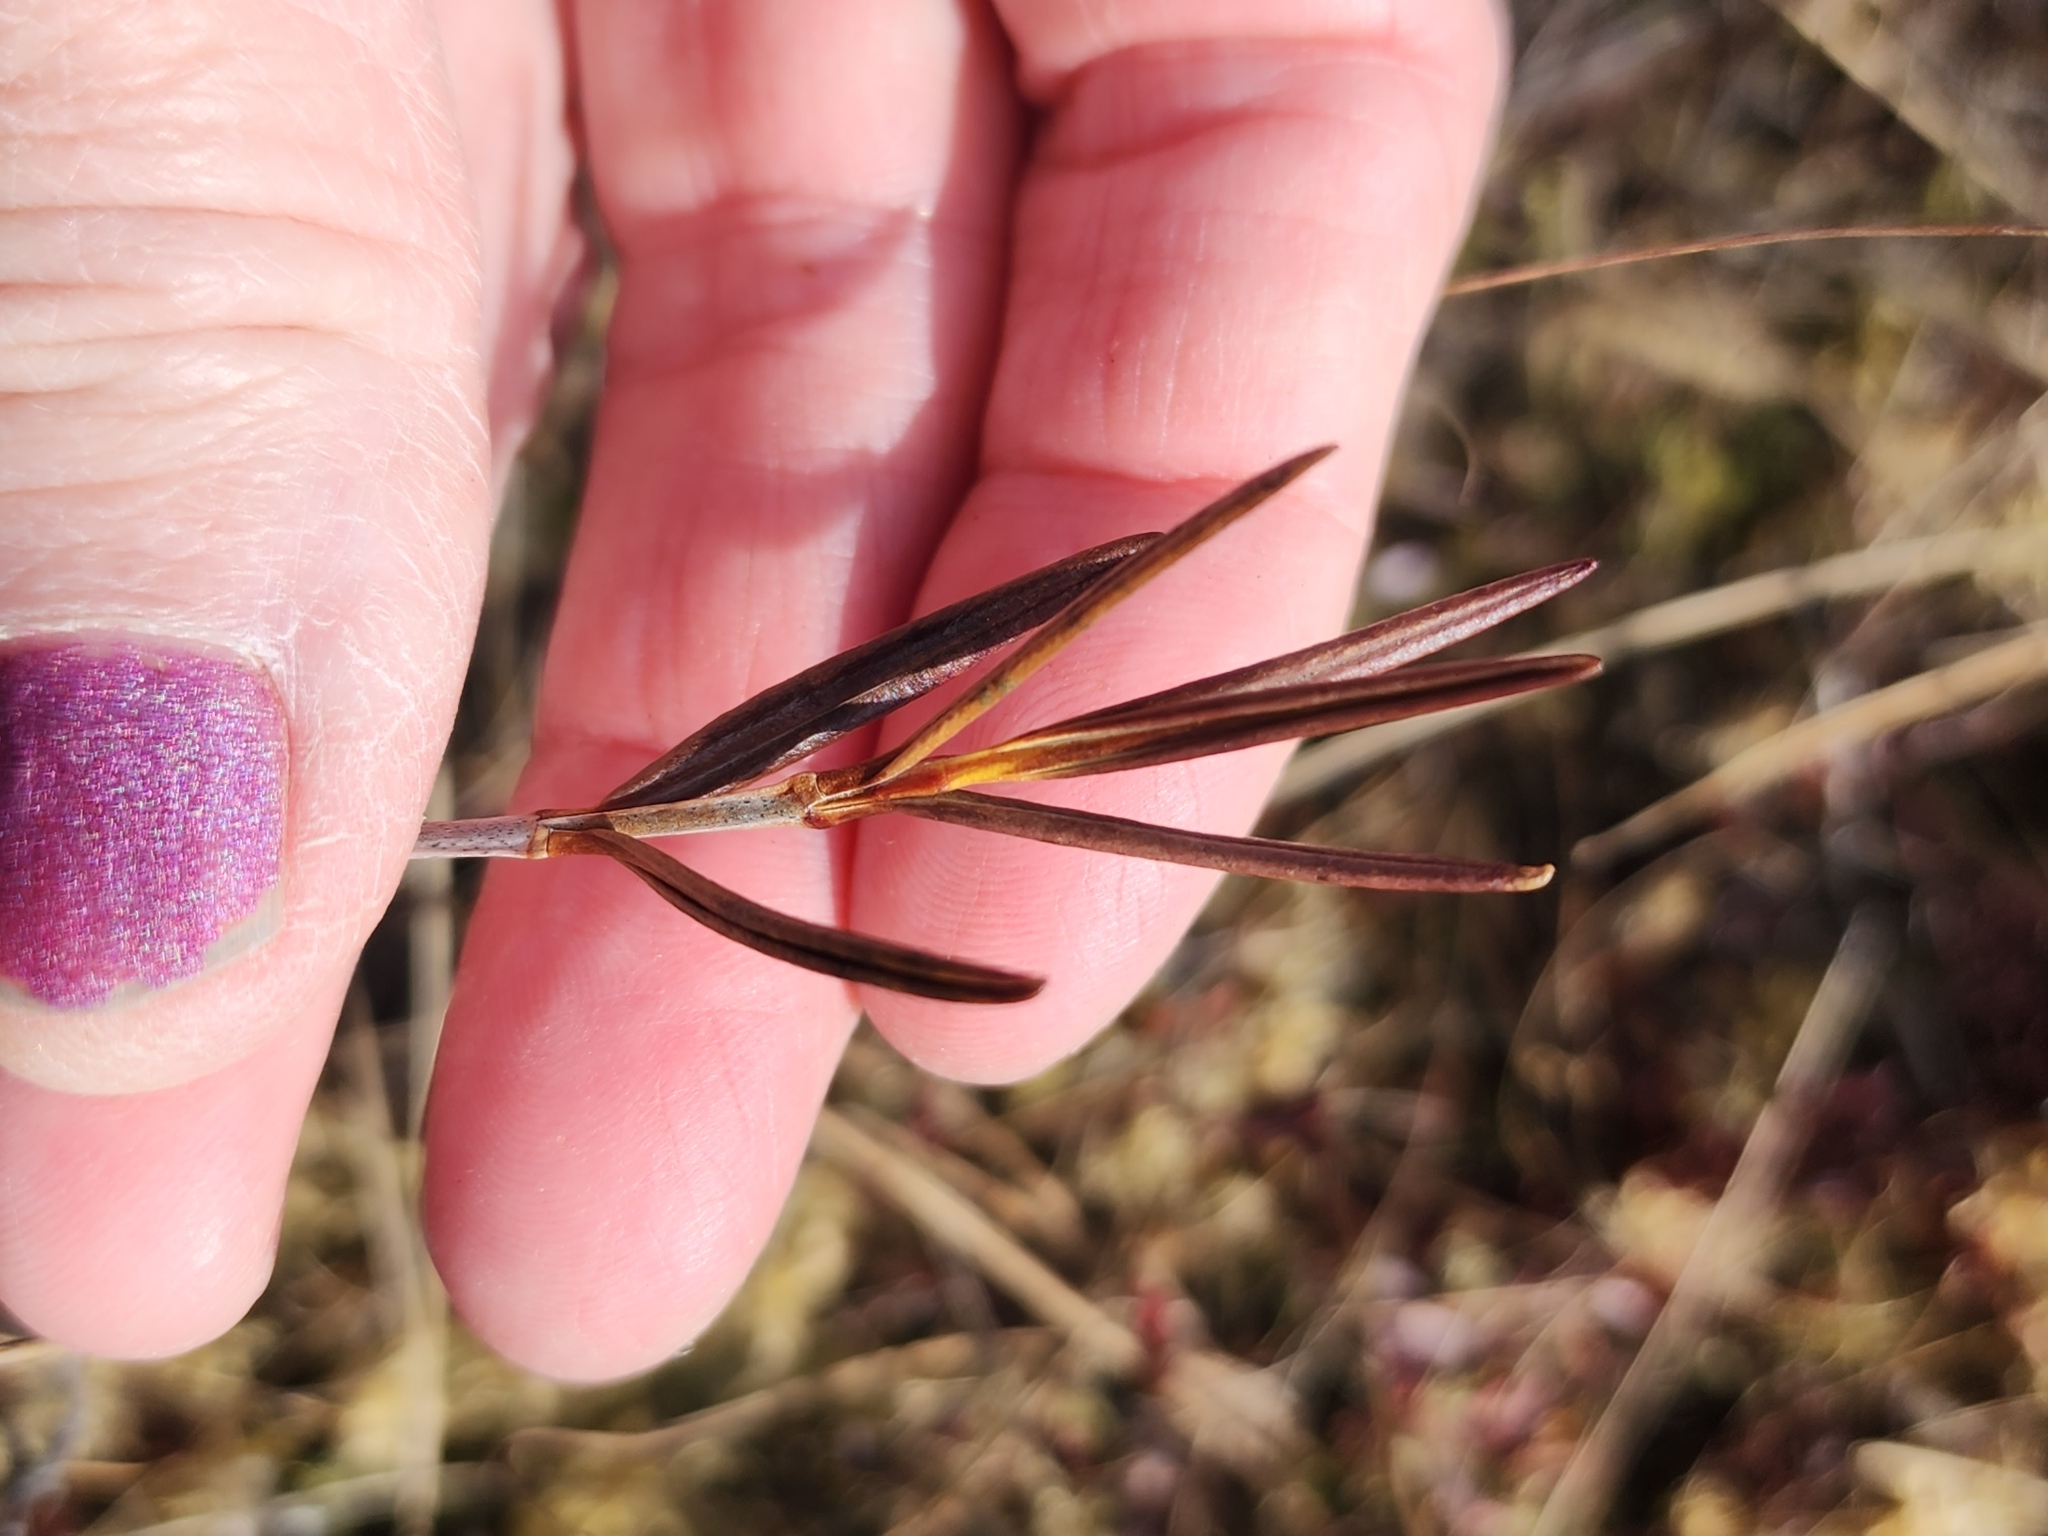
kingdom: Plantae
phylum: Tracheophyta
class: Magnoliopsida
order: Ericales
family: Ericaceae
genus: Kalmia
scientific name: Kalmia polifolia
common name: Bog-laurel
